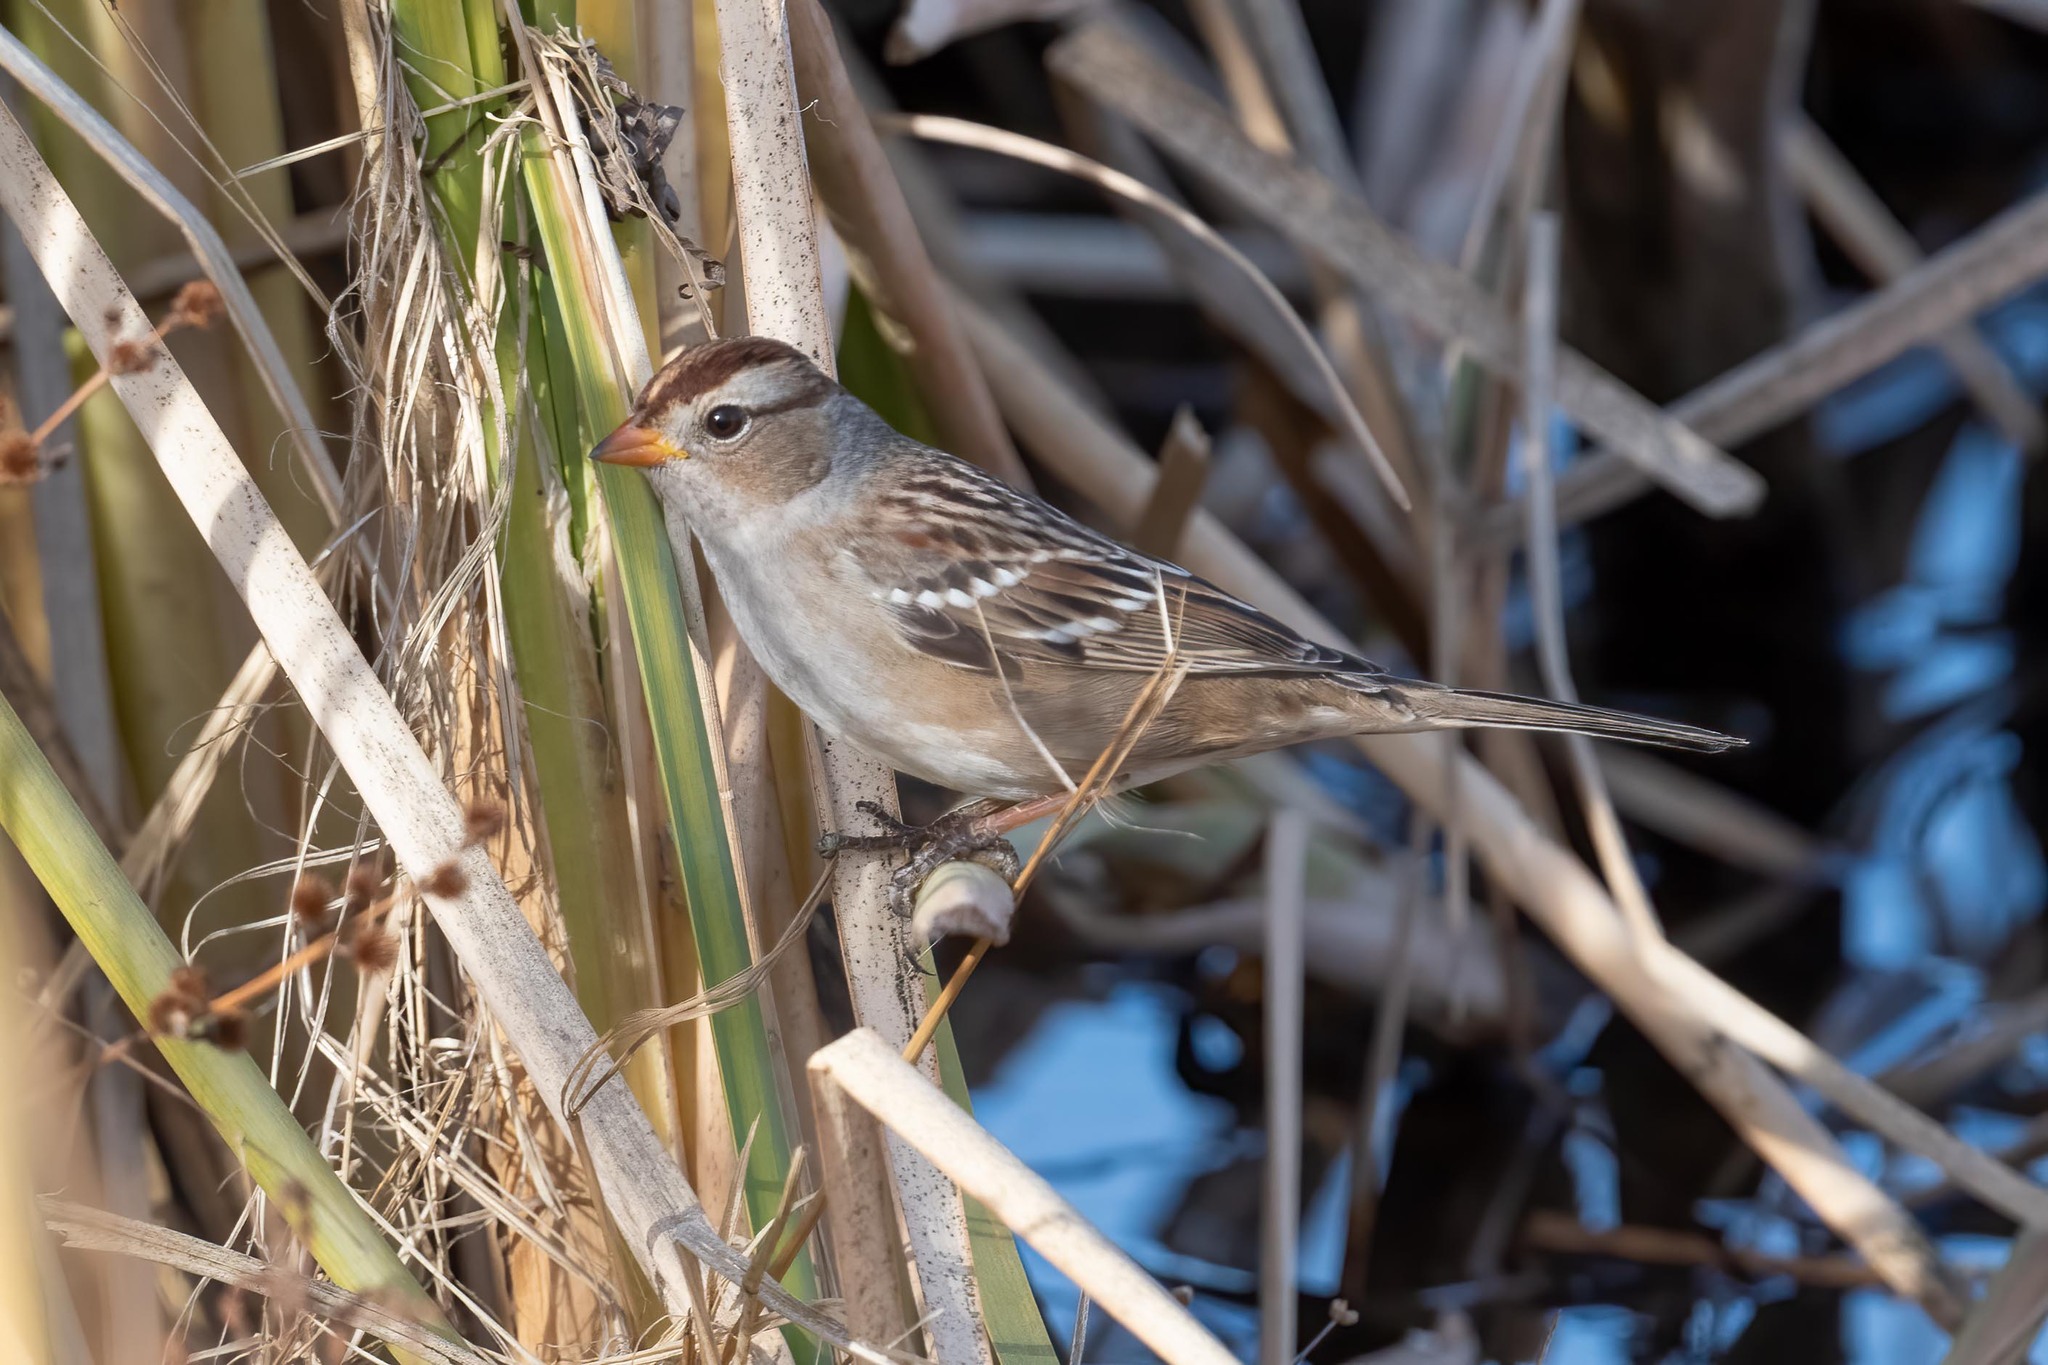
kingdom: Animalia
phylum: Chordata
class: Aves
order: Passeriformes
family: Passerellidae
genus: Zonotrichia
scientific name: Zonotrichia leucophrys
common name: White-crowned sparrow
